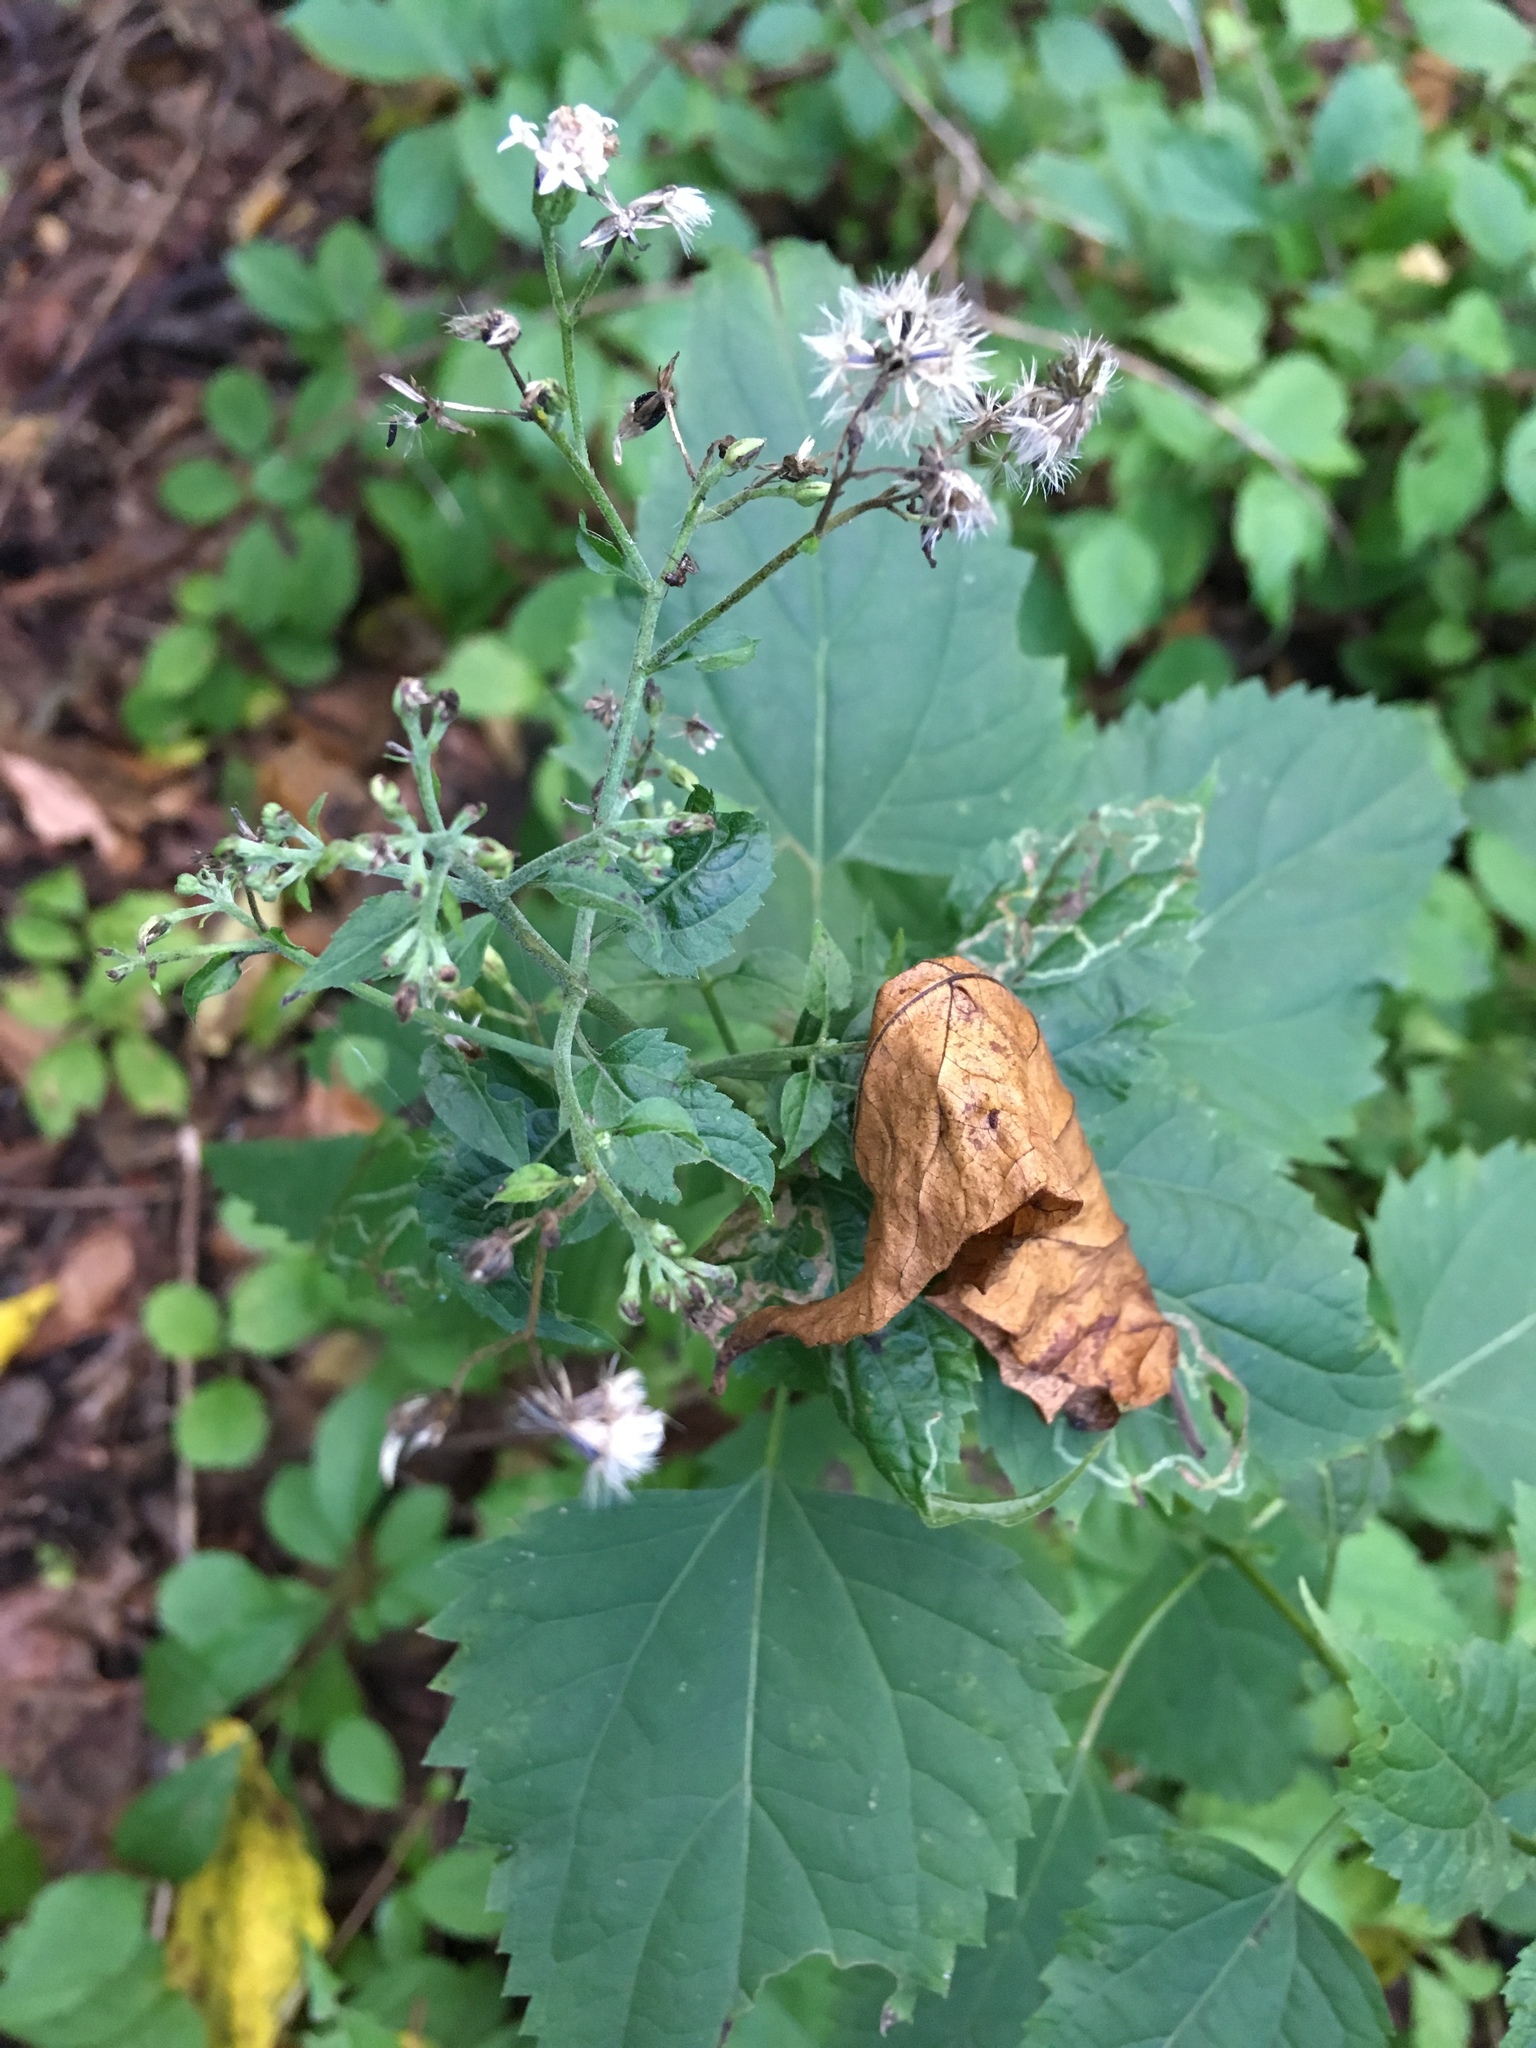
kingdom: Plantae
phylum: Tracheophyta
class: Magnoliopsida
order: Asterales
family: Asteraceae
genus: Ageratina
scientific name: Ageratina altissima
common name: White snakeroot
